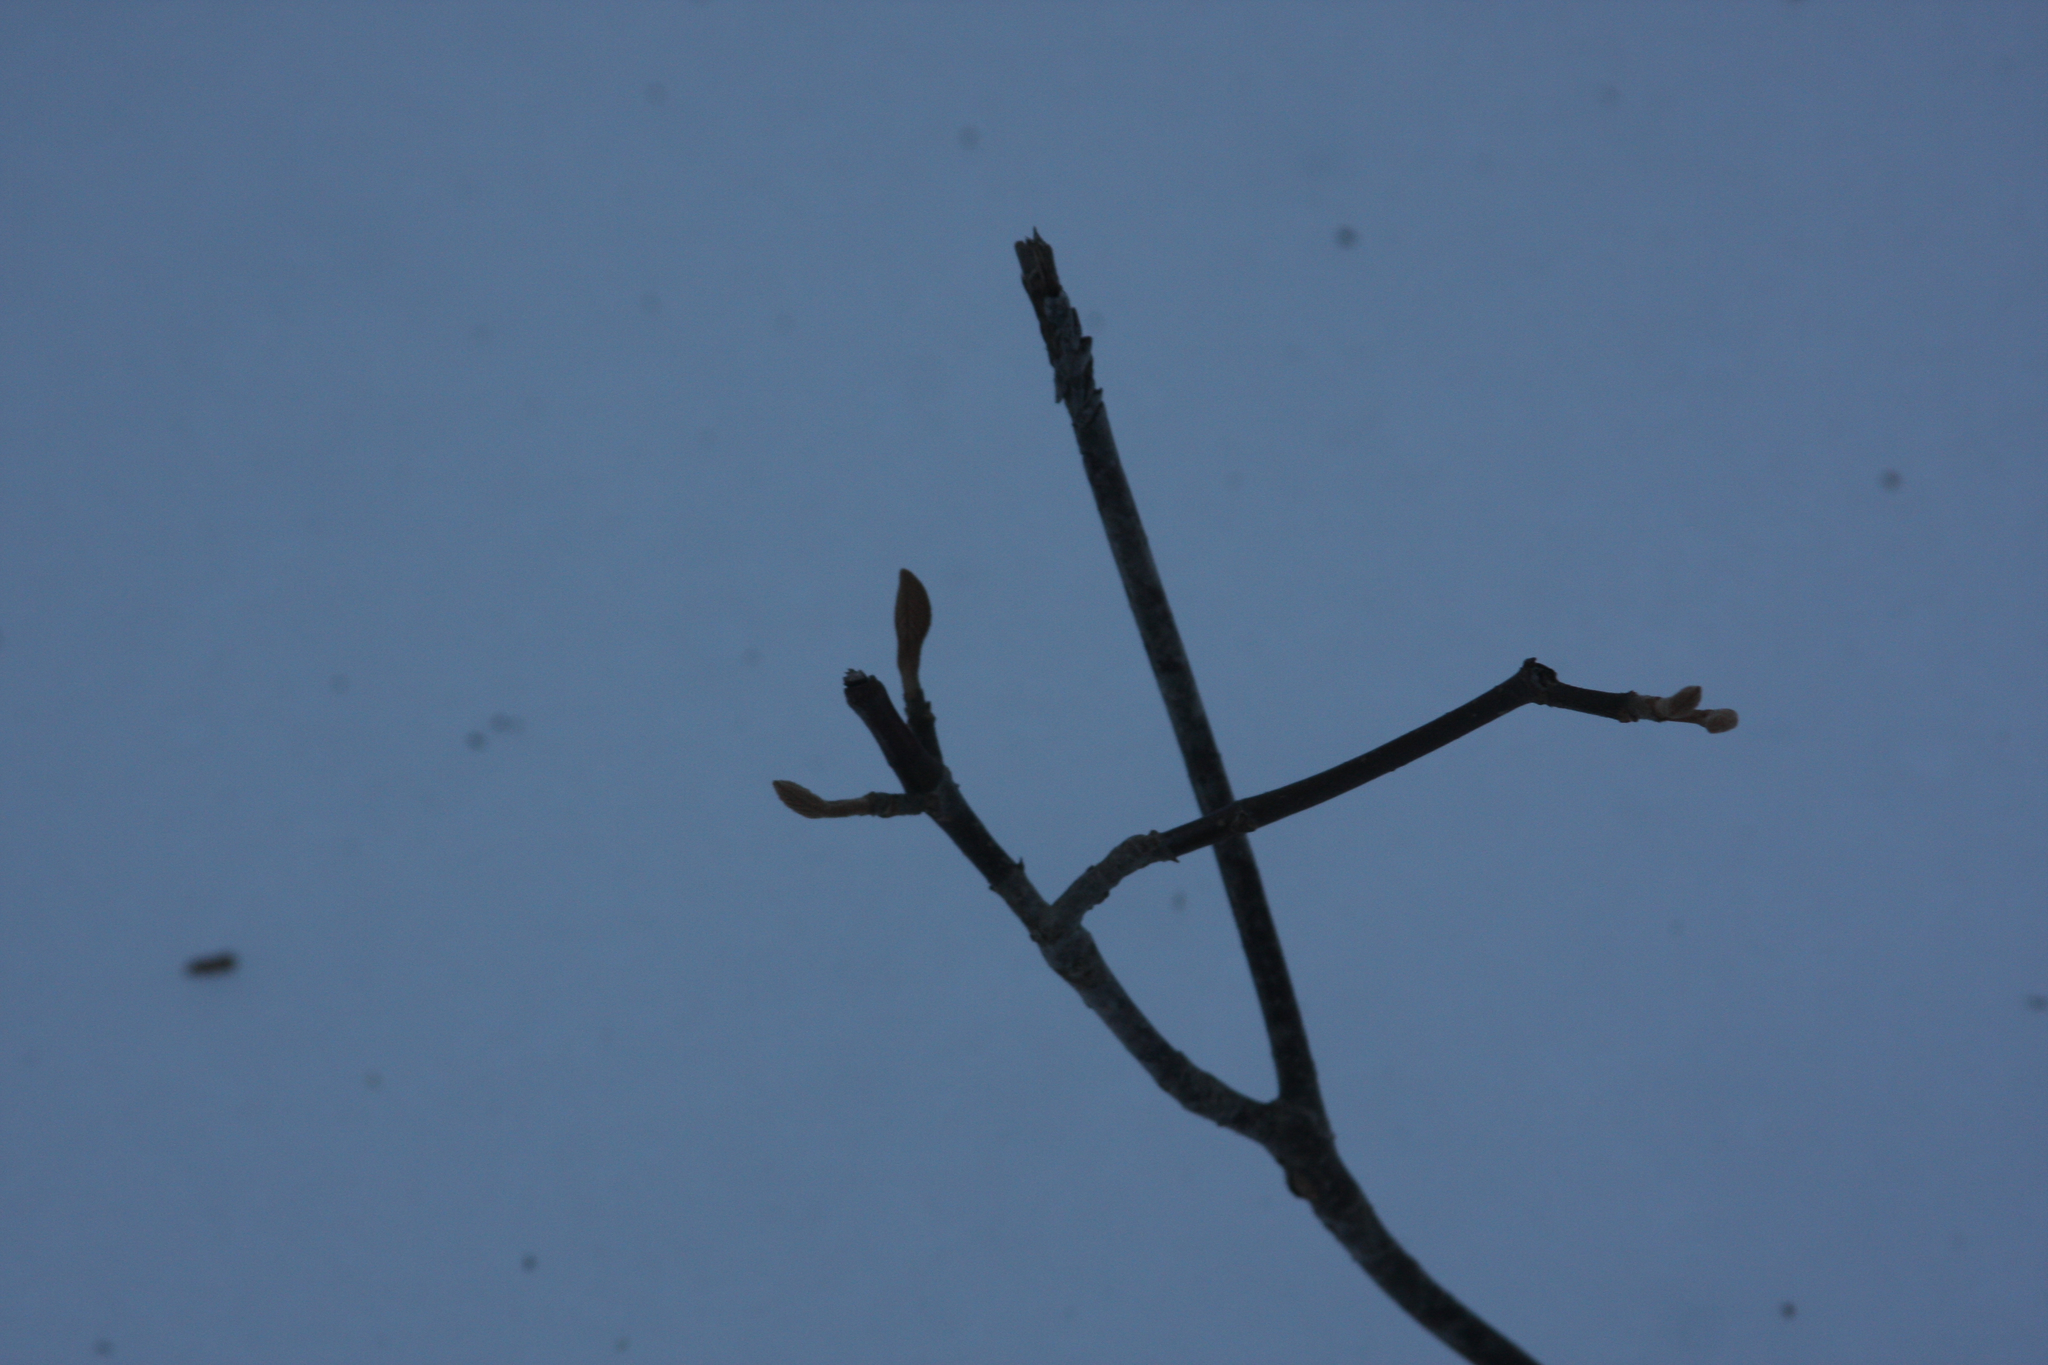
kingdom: Plantae
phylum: Tracheophyta
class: Magnoliopsida
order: Dipsacales
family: Viburnaceae
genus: Viburnum
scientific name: Viburnum lantanoides
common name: Hobblebush
